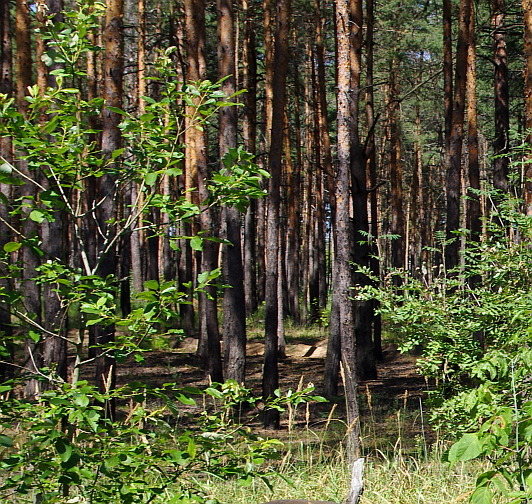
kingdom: Plantae
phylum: Tracheophyta
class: Pinopsida
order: Pinales
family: Pinaceae
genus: Pinus
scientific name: Pinus sylvestris
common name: Scots pine
